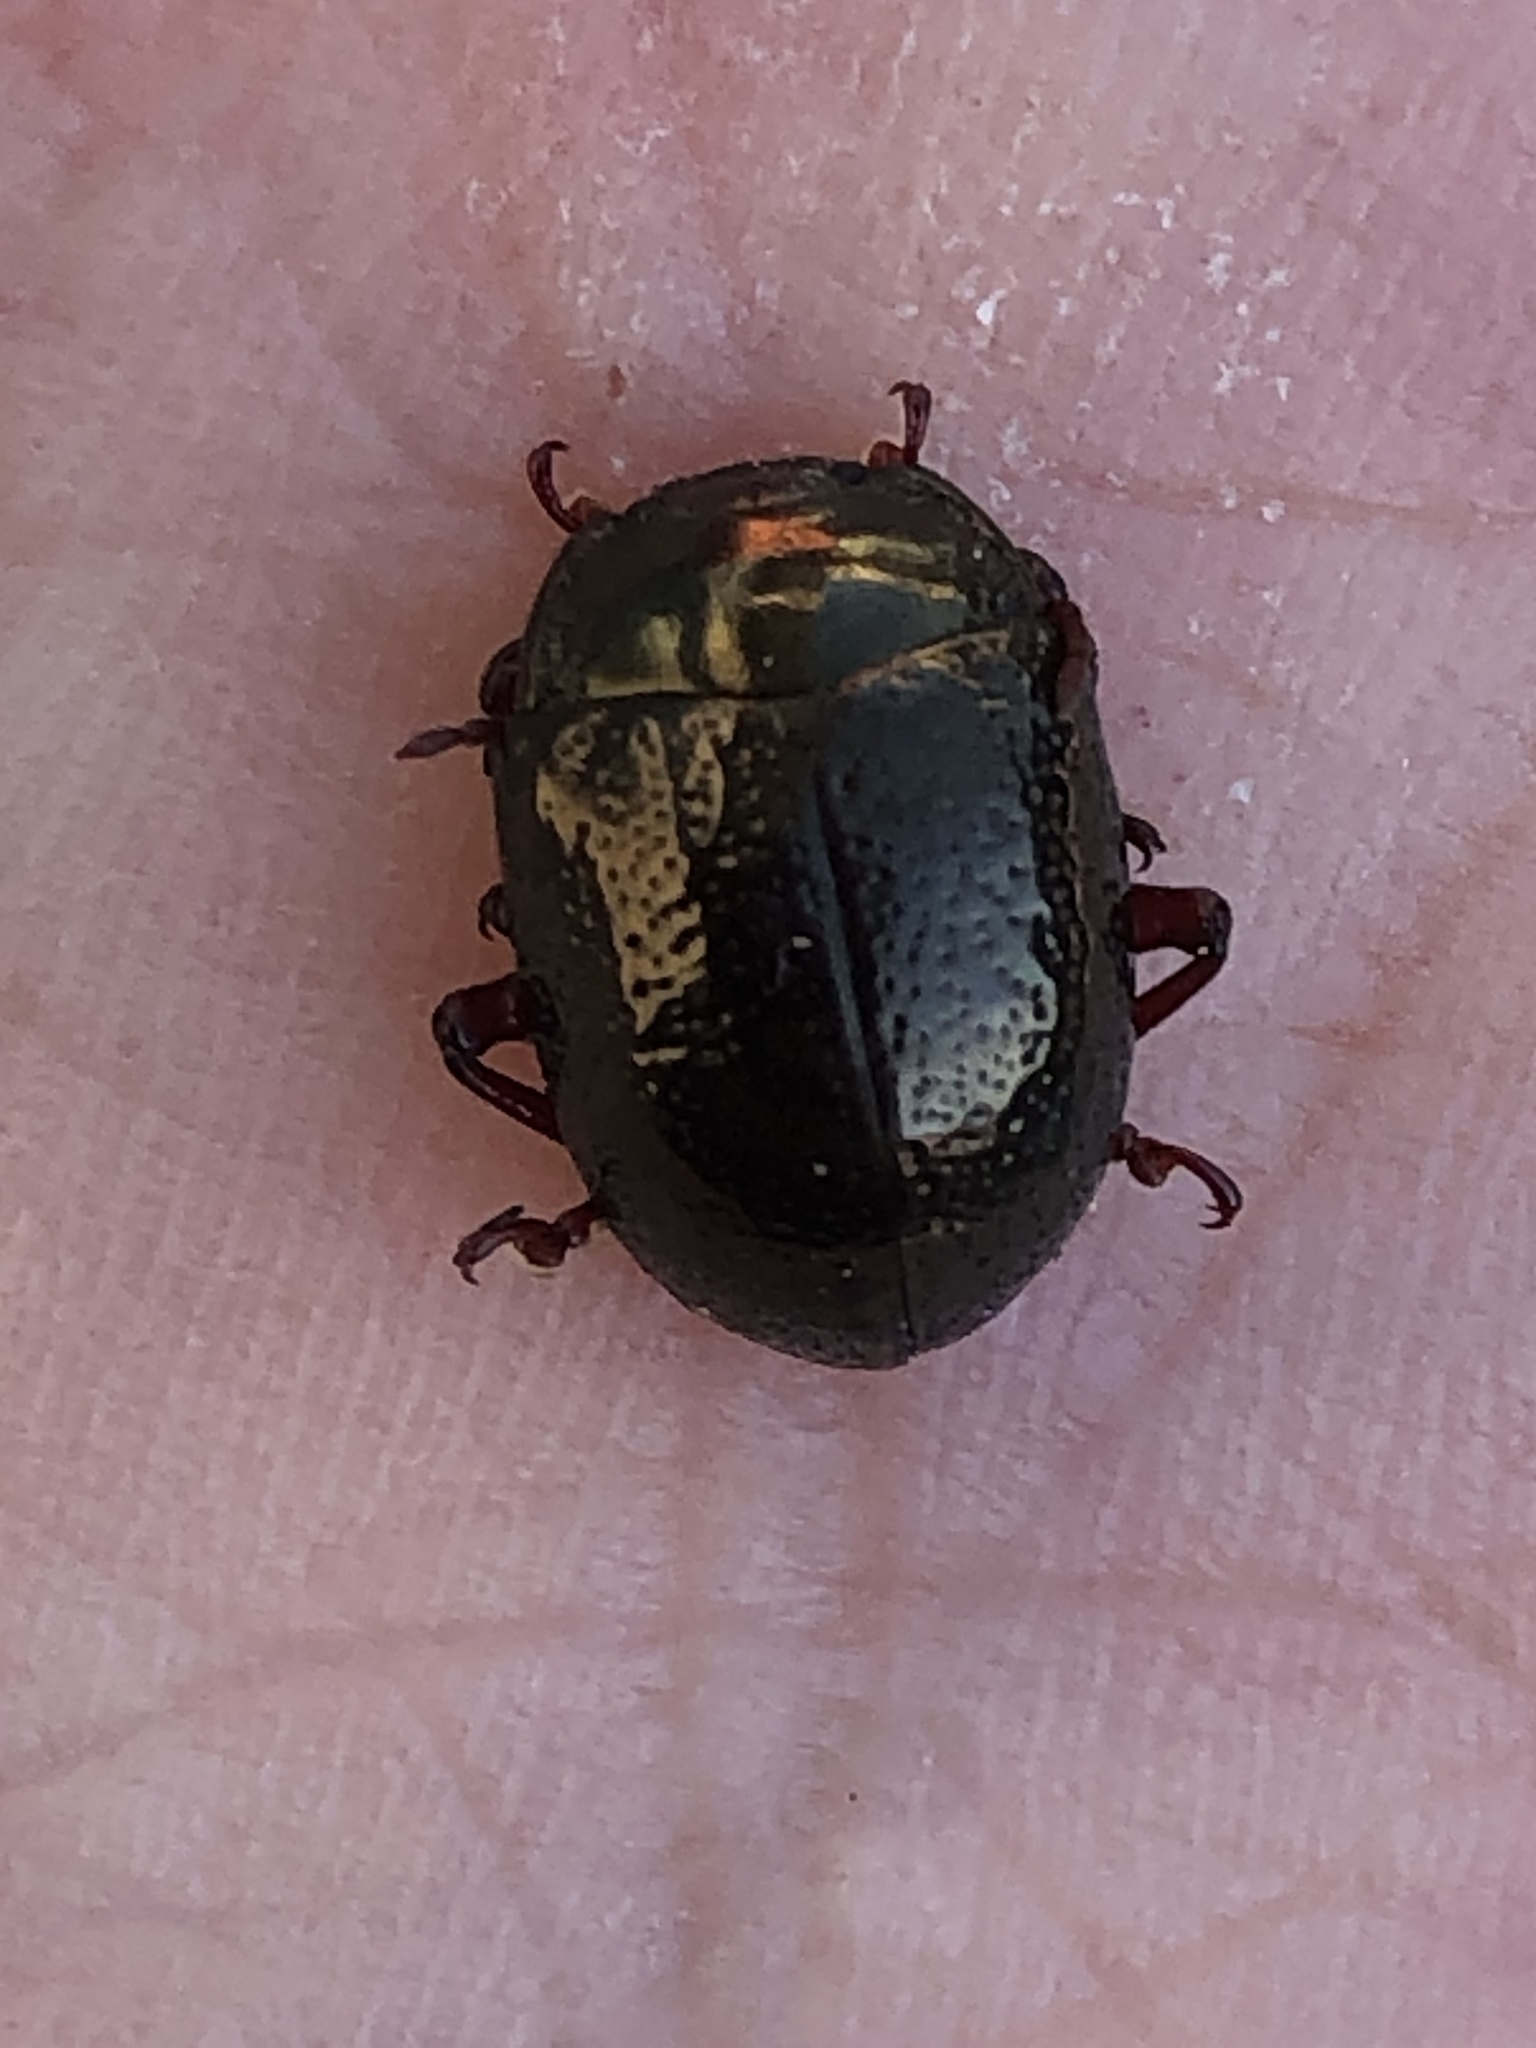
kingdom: Animalia
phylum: Arthropoda
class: Insecta
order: Coleoptera
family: Chrysomelidae
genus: Chrysolina
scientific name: Chrysolina bankii
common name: Leaf beetle
